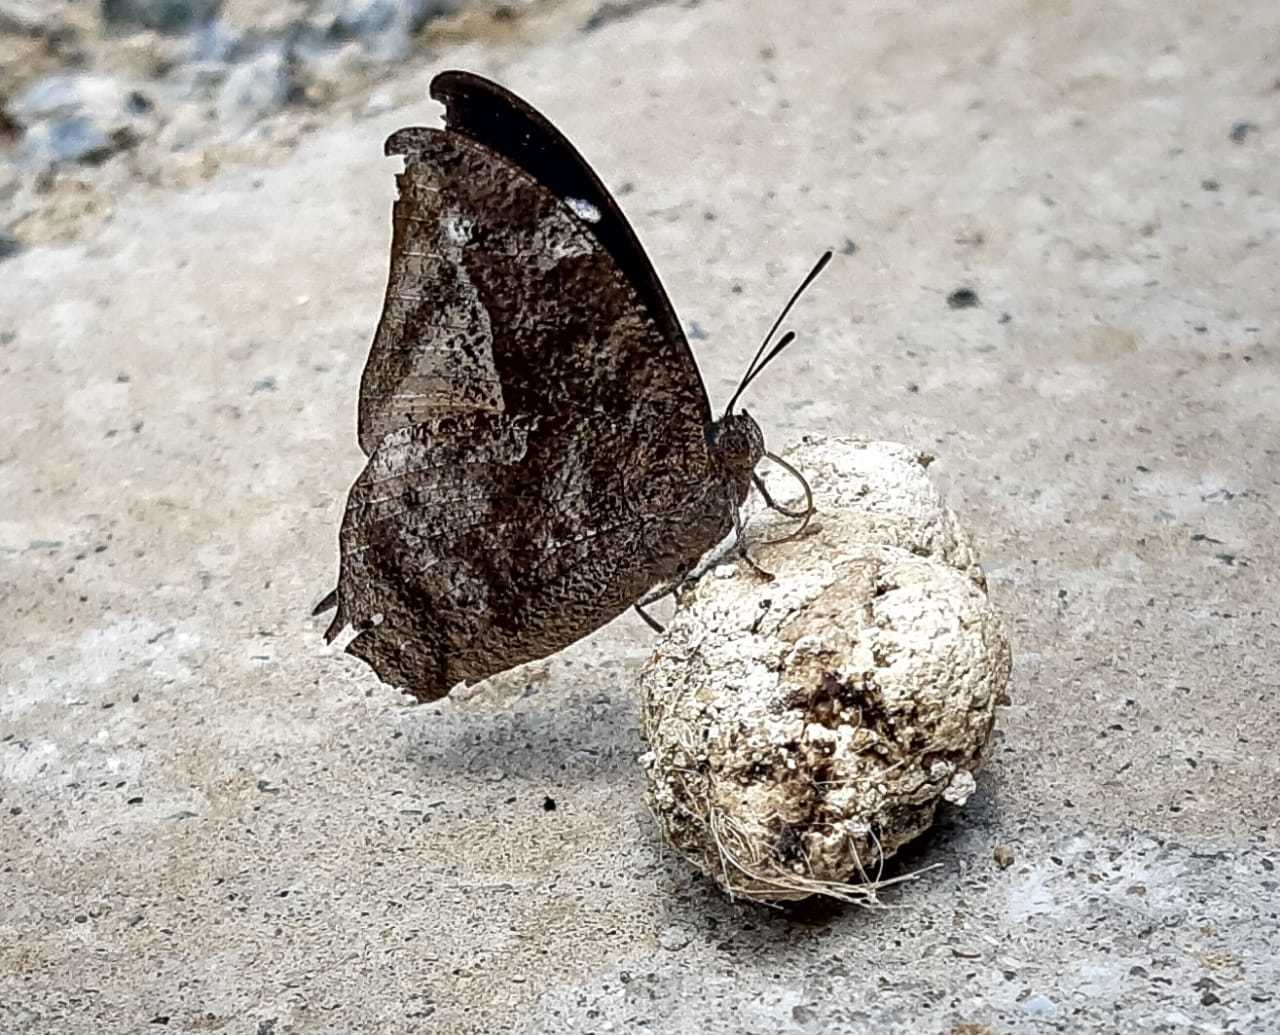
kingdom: Animalia
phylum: Arthropoda
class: Insecta
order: Lepidoptera
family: Nymphalidae
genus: Memphis
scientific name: Memphis
